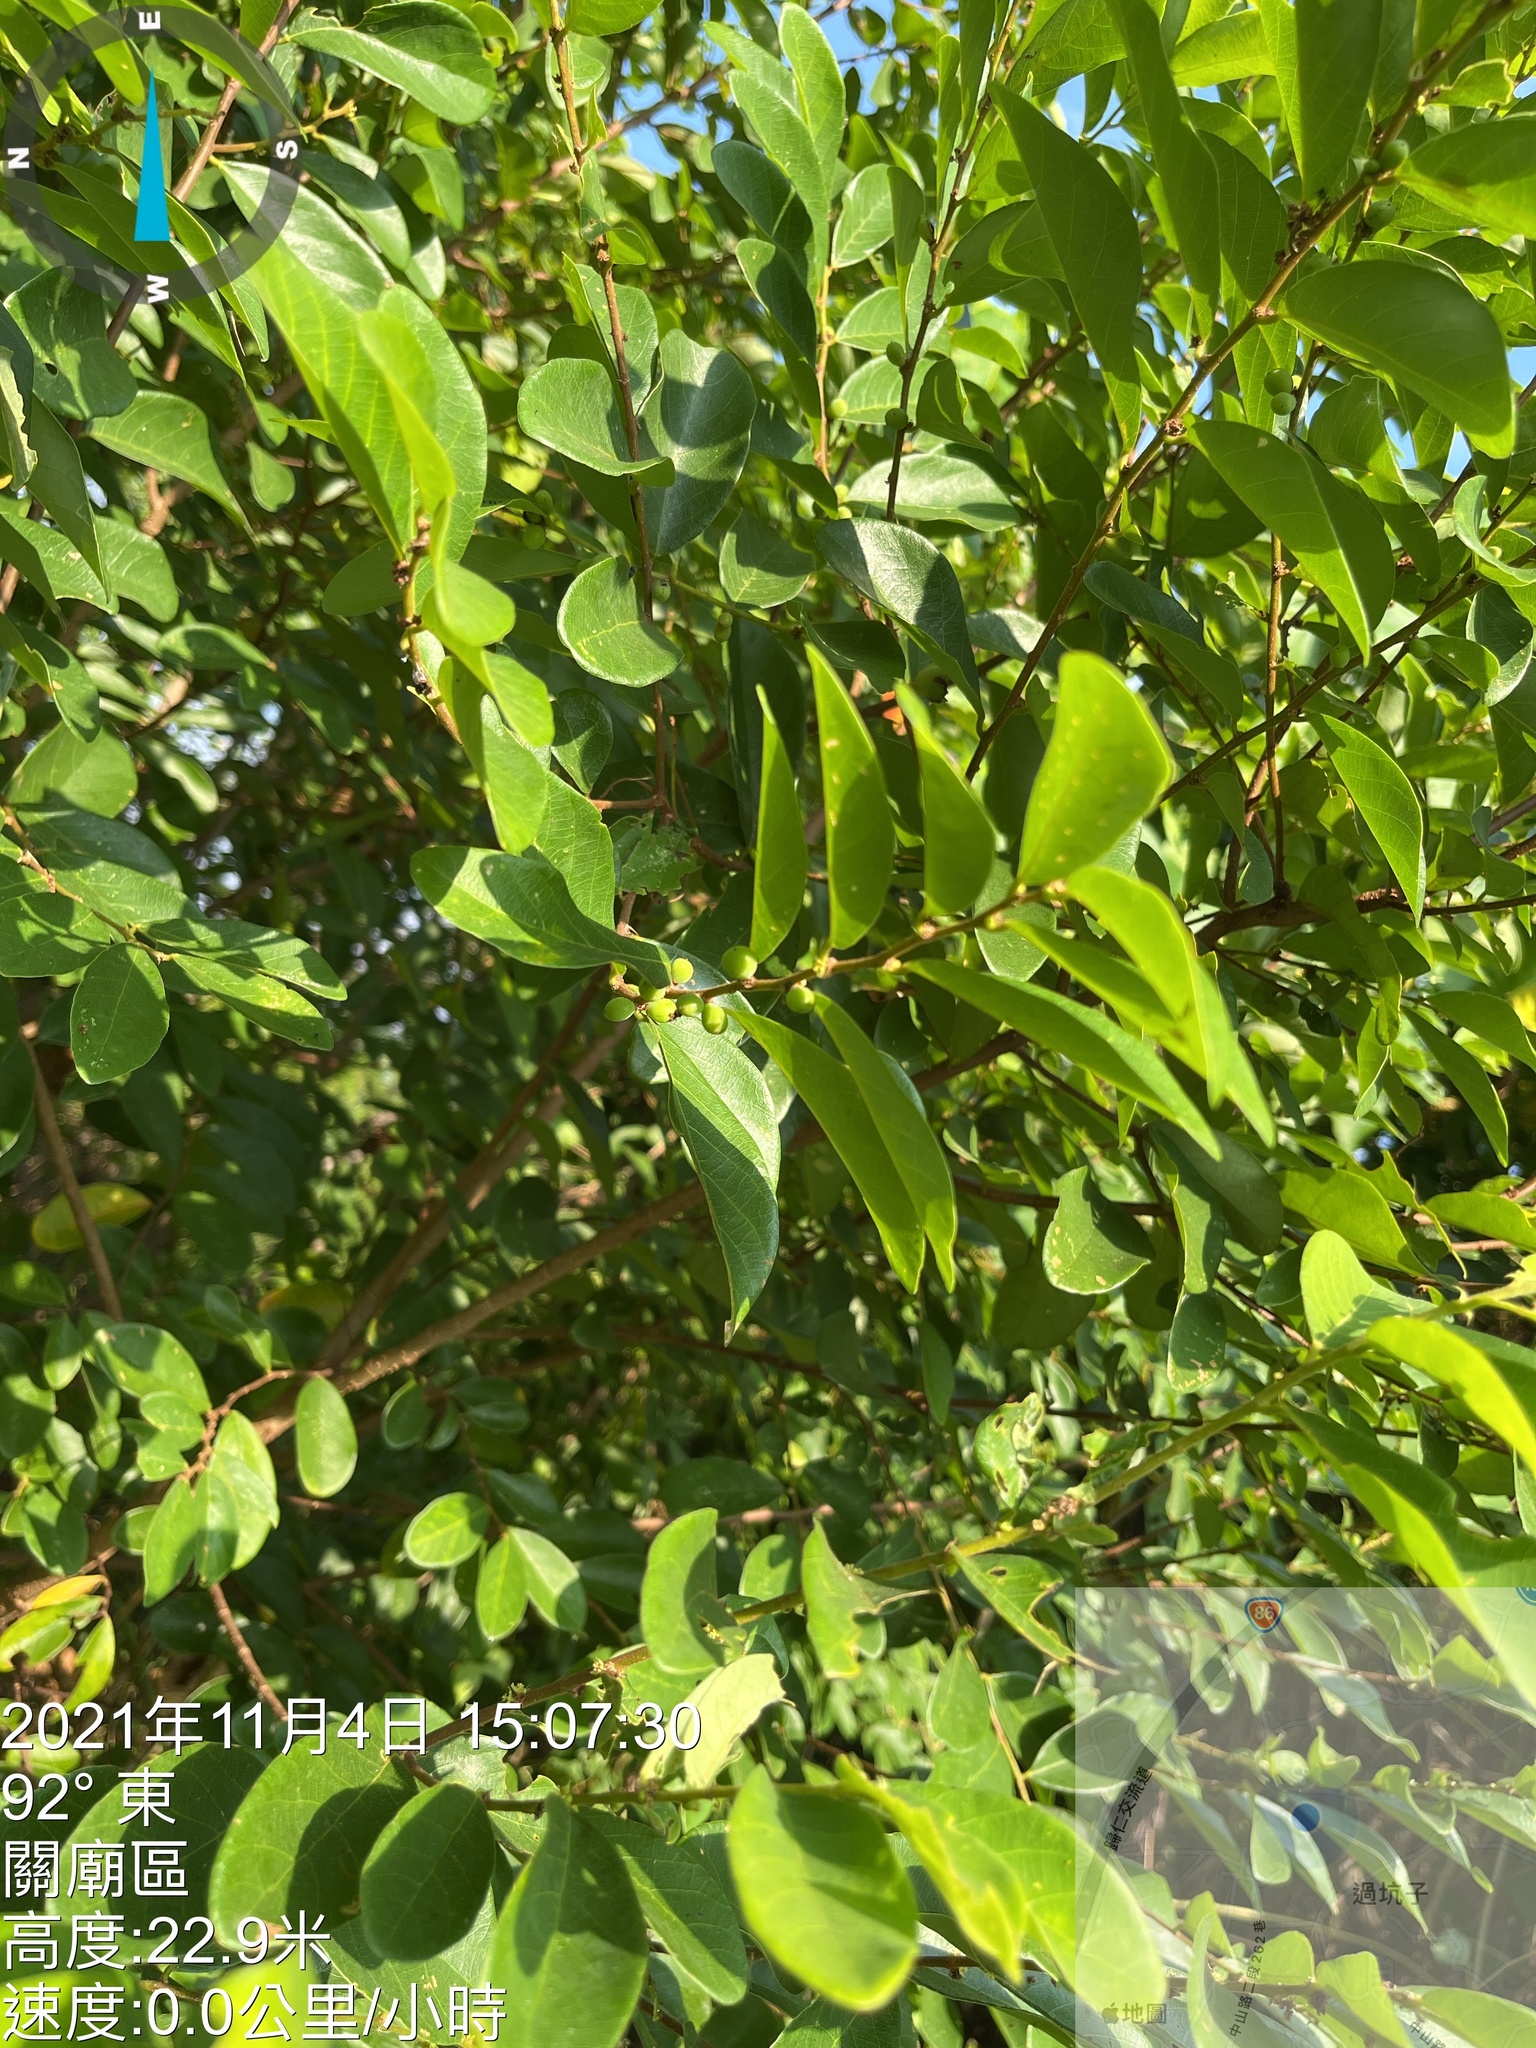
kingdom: Plantae
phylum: Tracheophyta
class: Magnoliopsida
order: Malpighiales
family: Phyllanthaceae
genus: Bridelia
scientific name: Bridelia tomentosa
